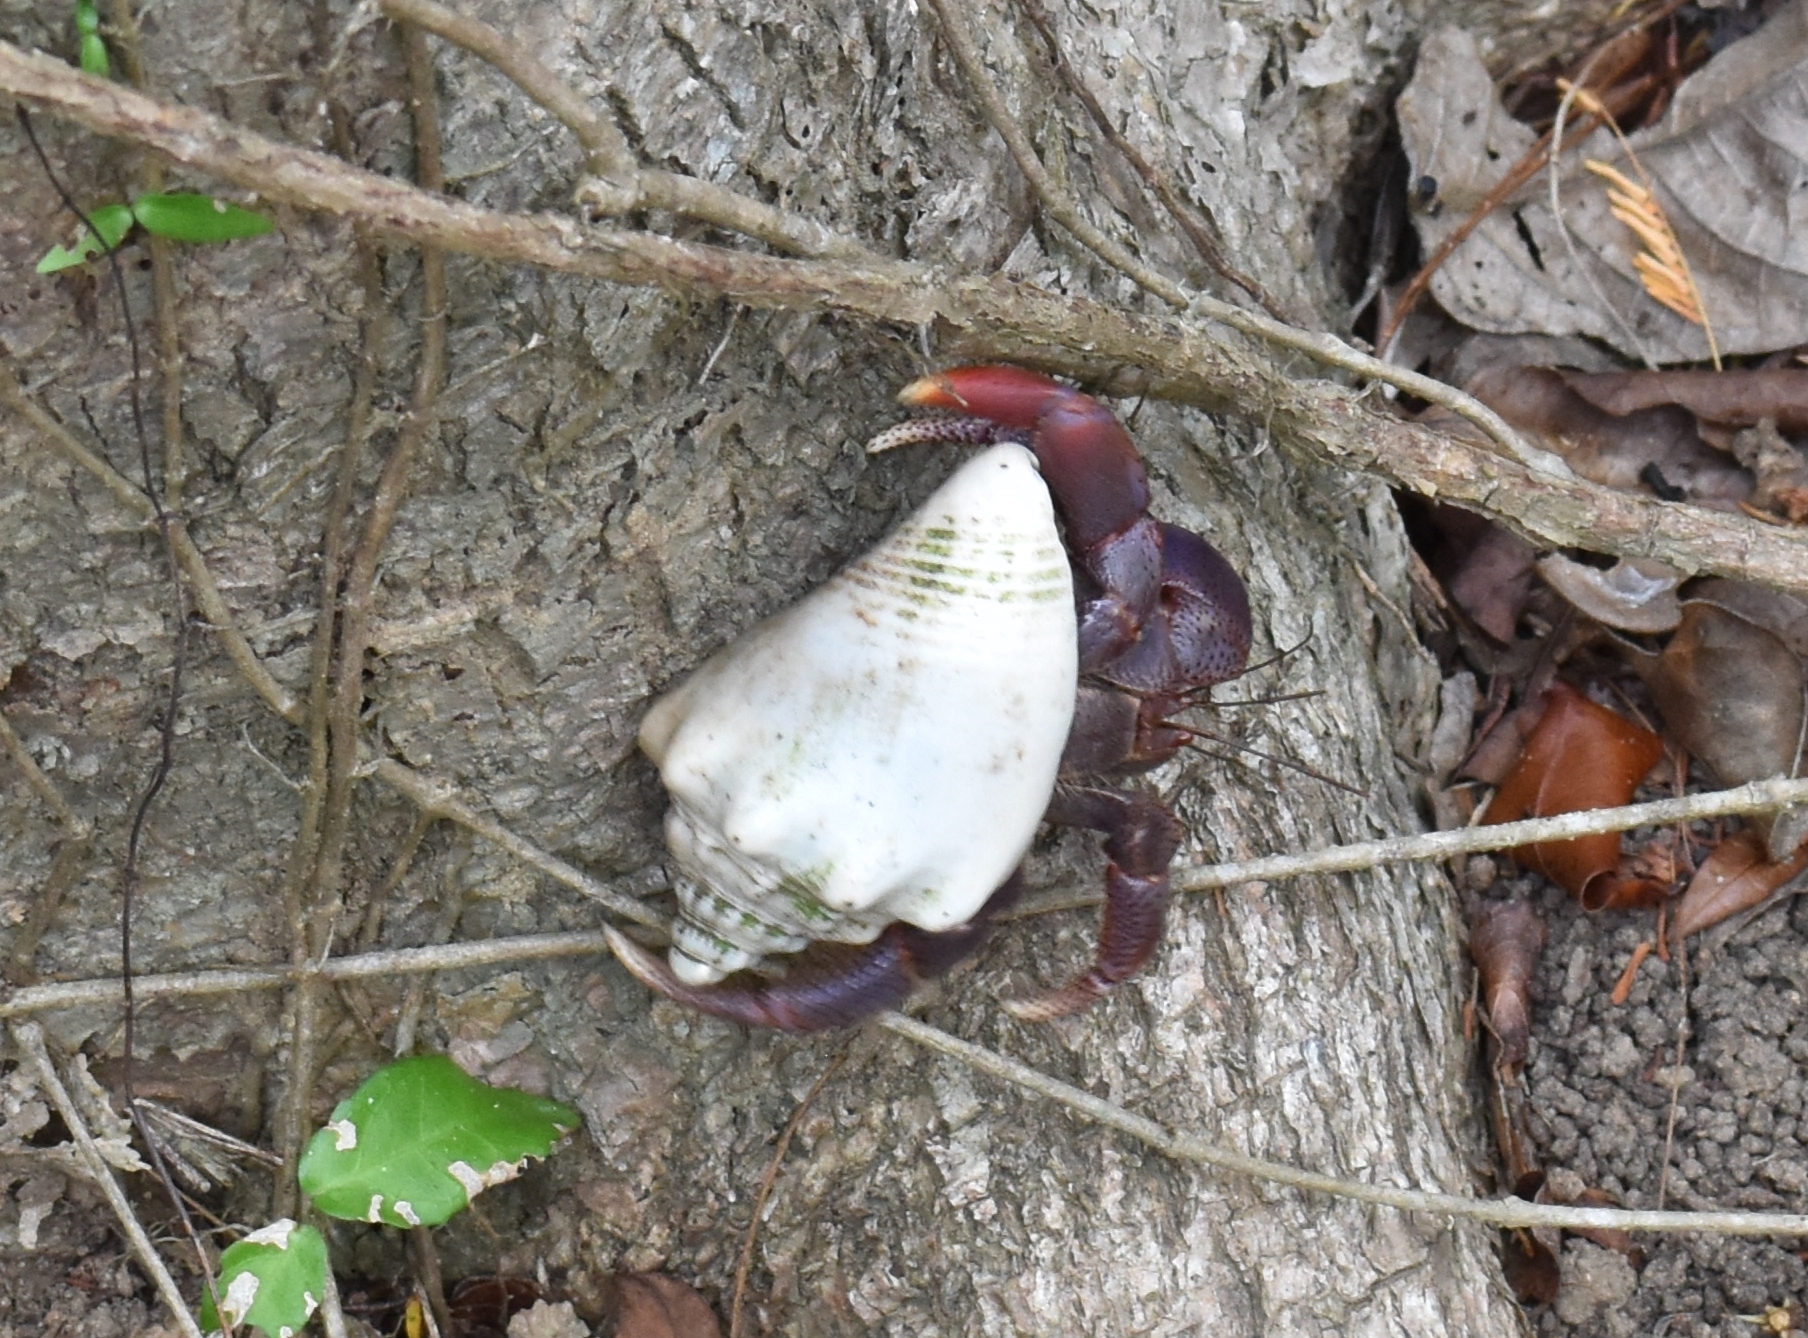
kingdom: Animalia
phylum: Arthropoda
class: Malacostraca
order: Decapoda
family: Coenobitidae
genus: Coenobita
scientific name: Coenobita clypeatus
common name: Caribbean hermit crab
